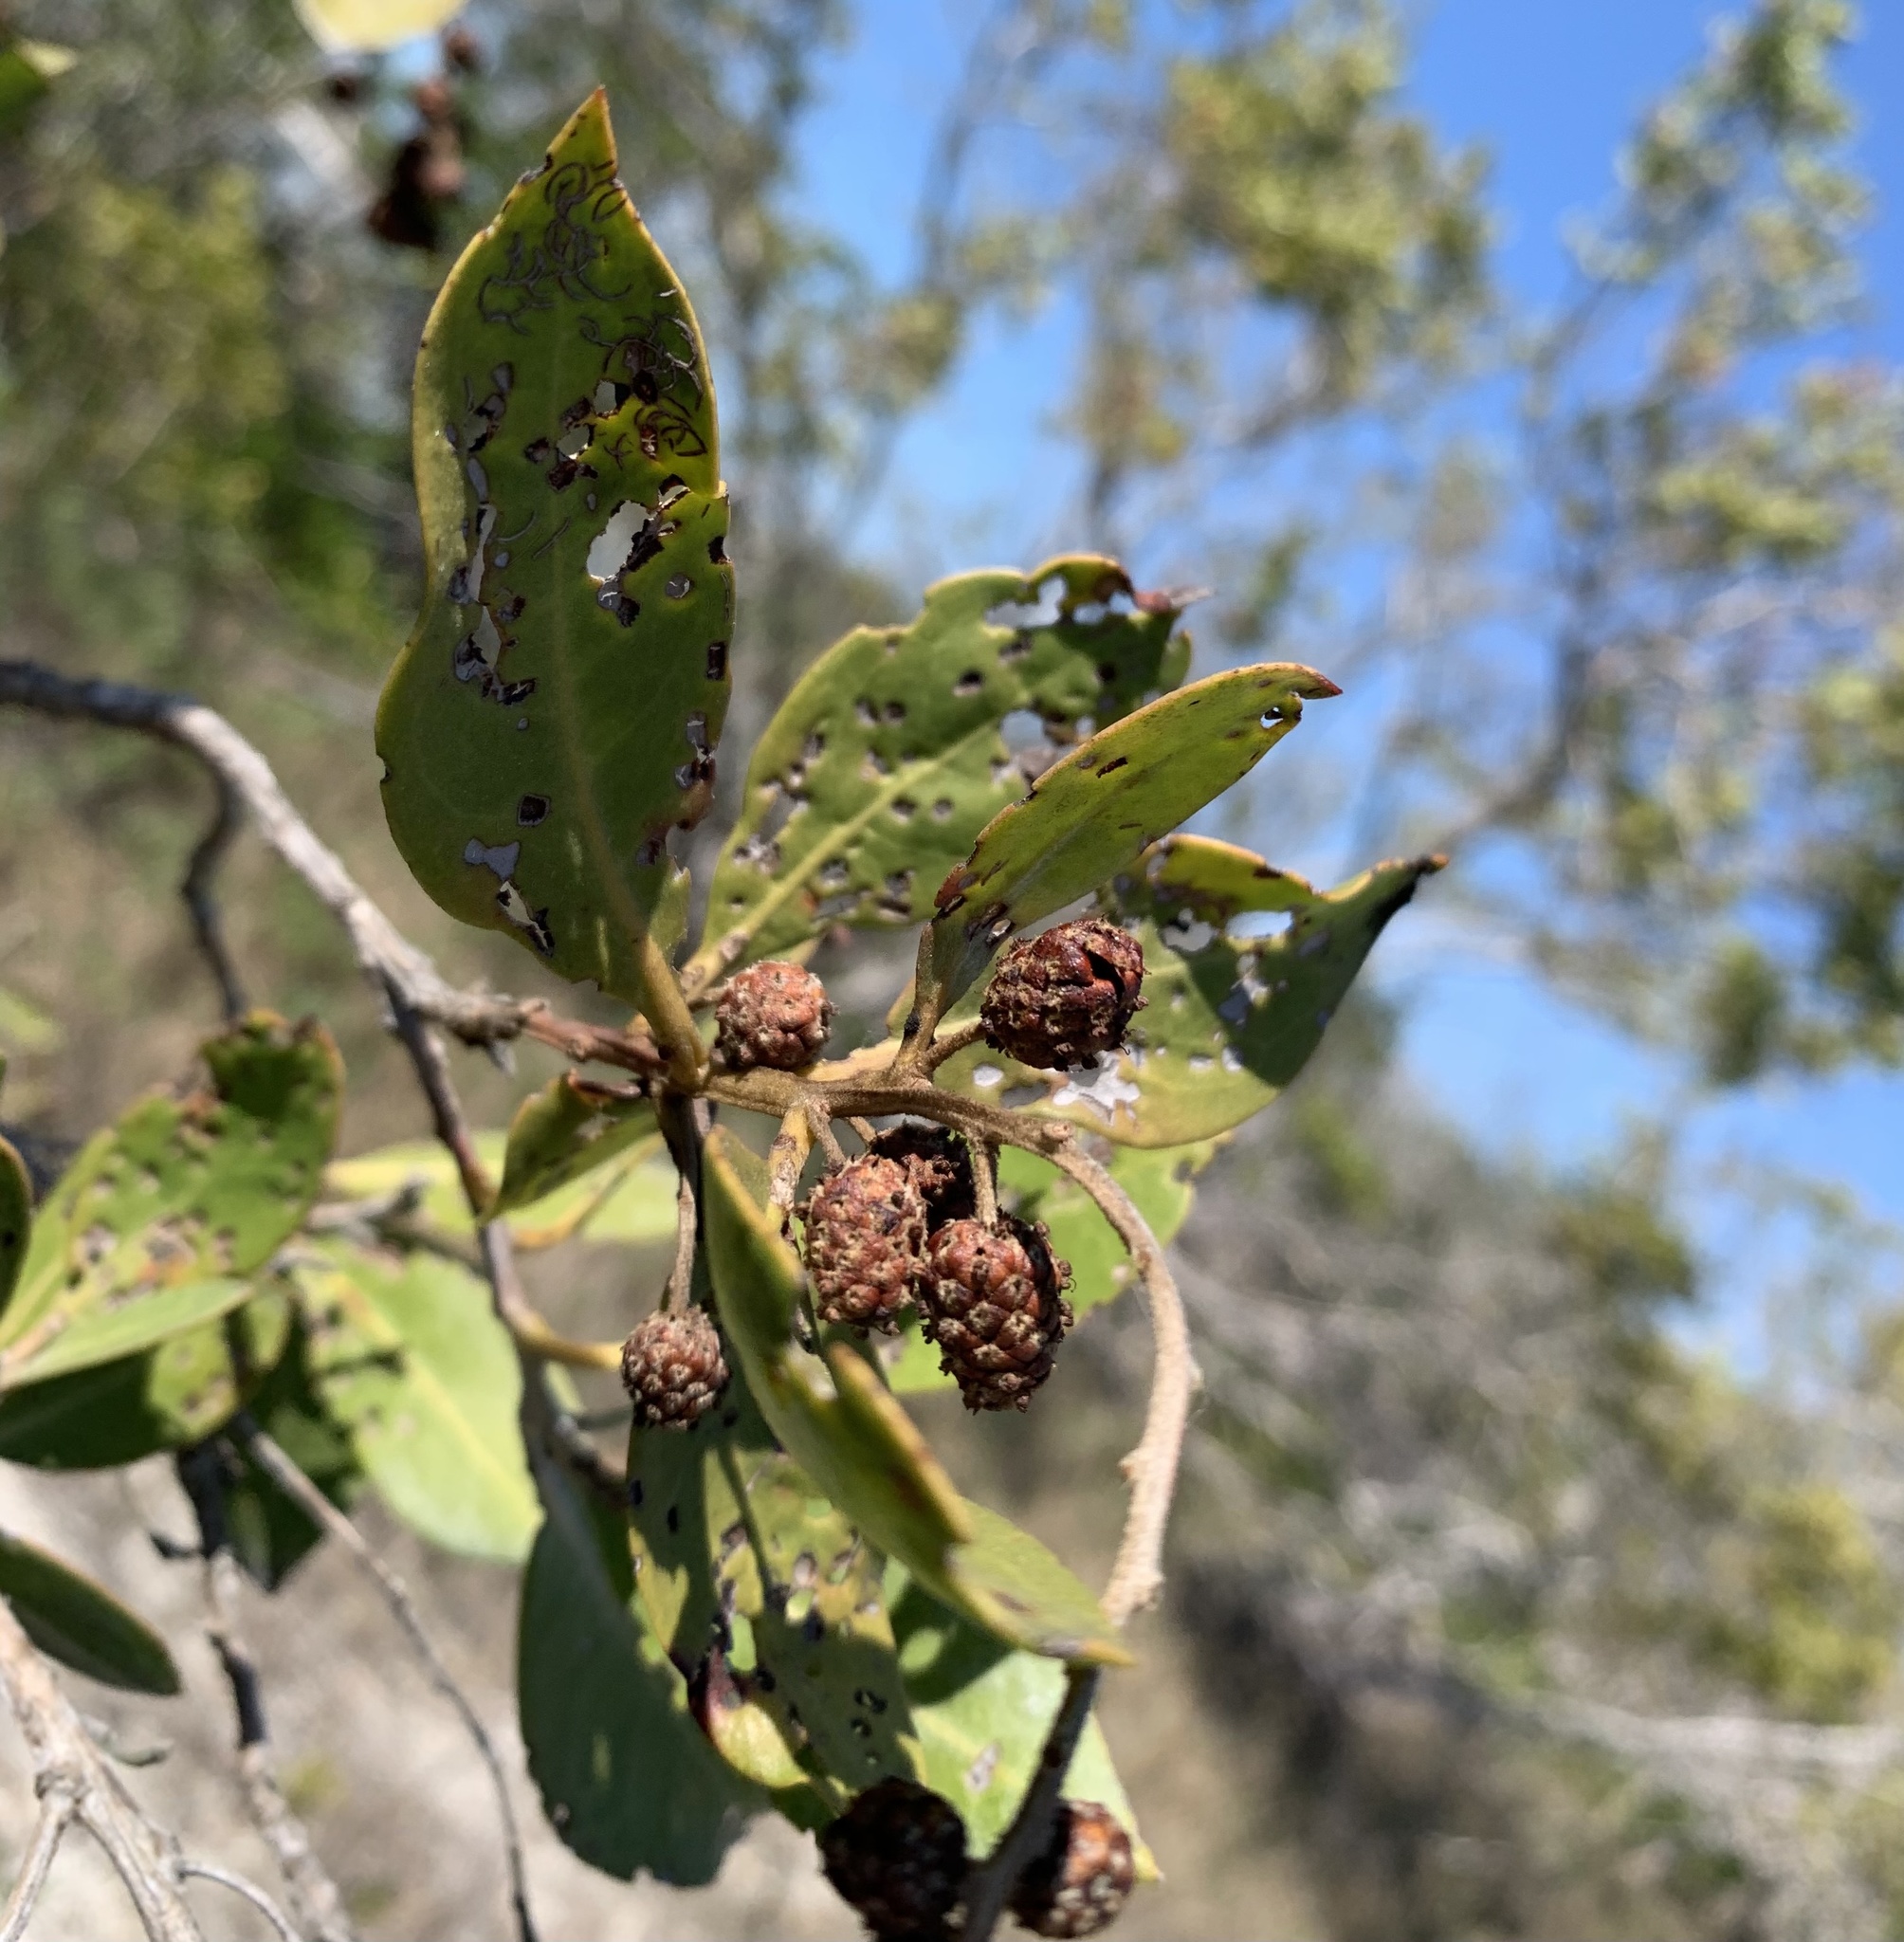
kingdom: Plantae
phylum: Tracheophyta
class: Magnoliopsida
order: Myrtales
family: Combretaceae
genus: Conocarpus
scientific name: Conocarpus erectus
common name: Button mangrove
